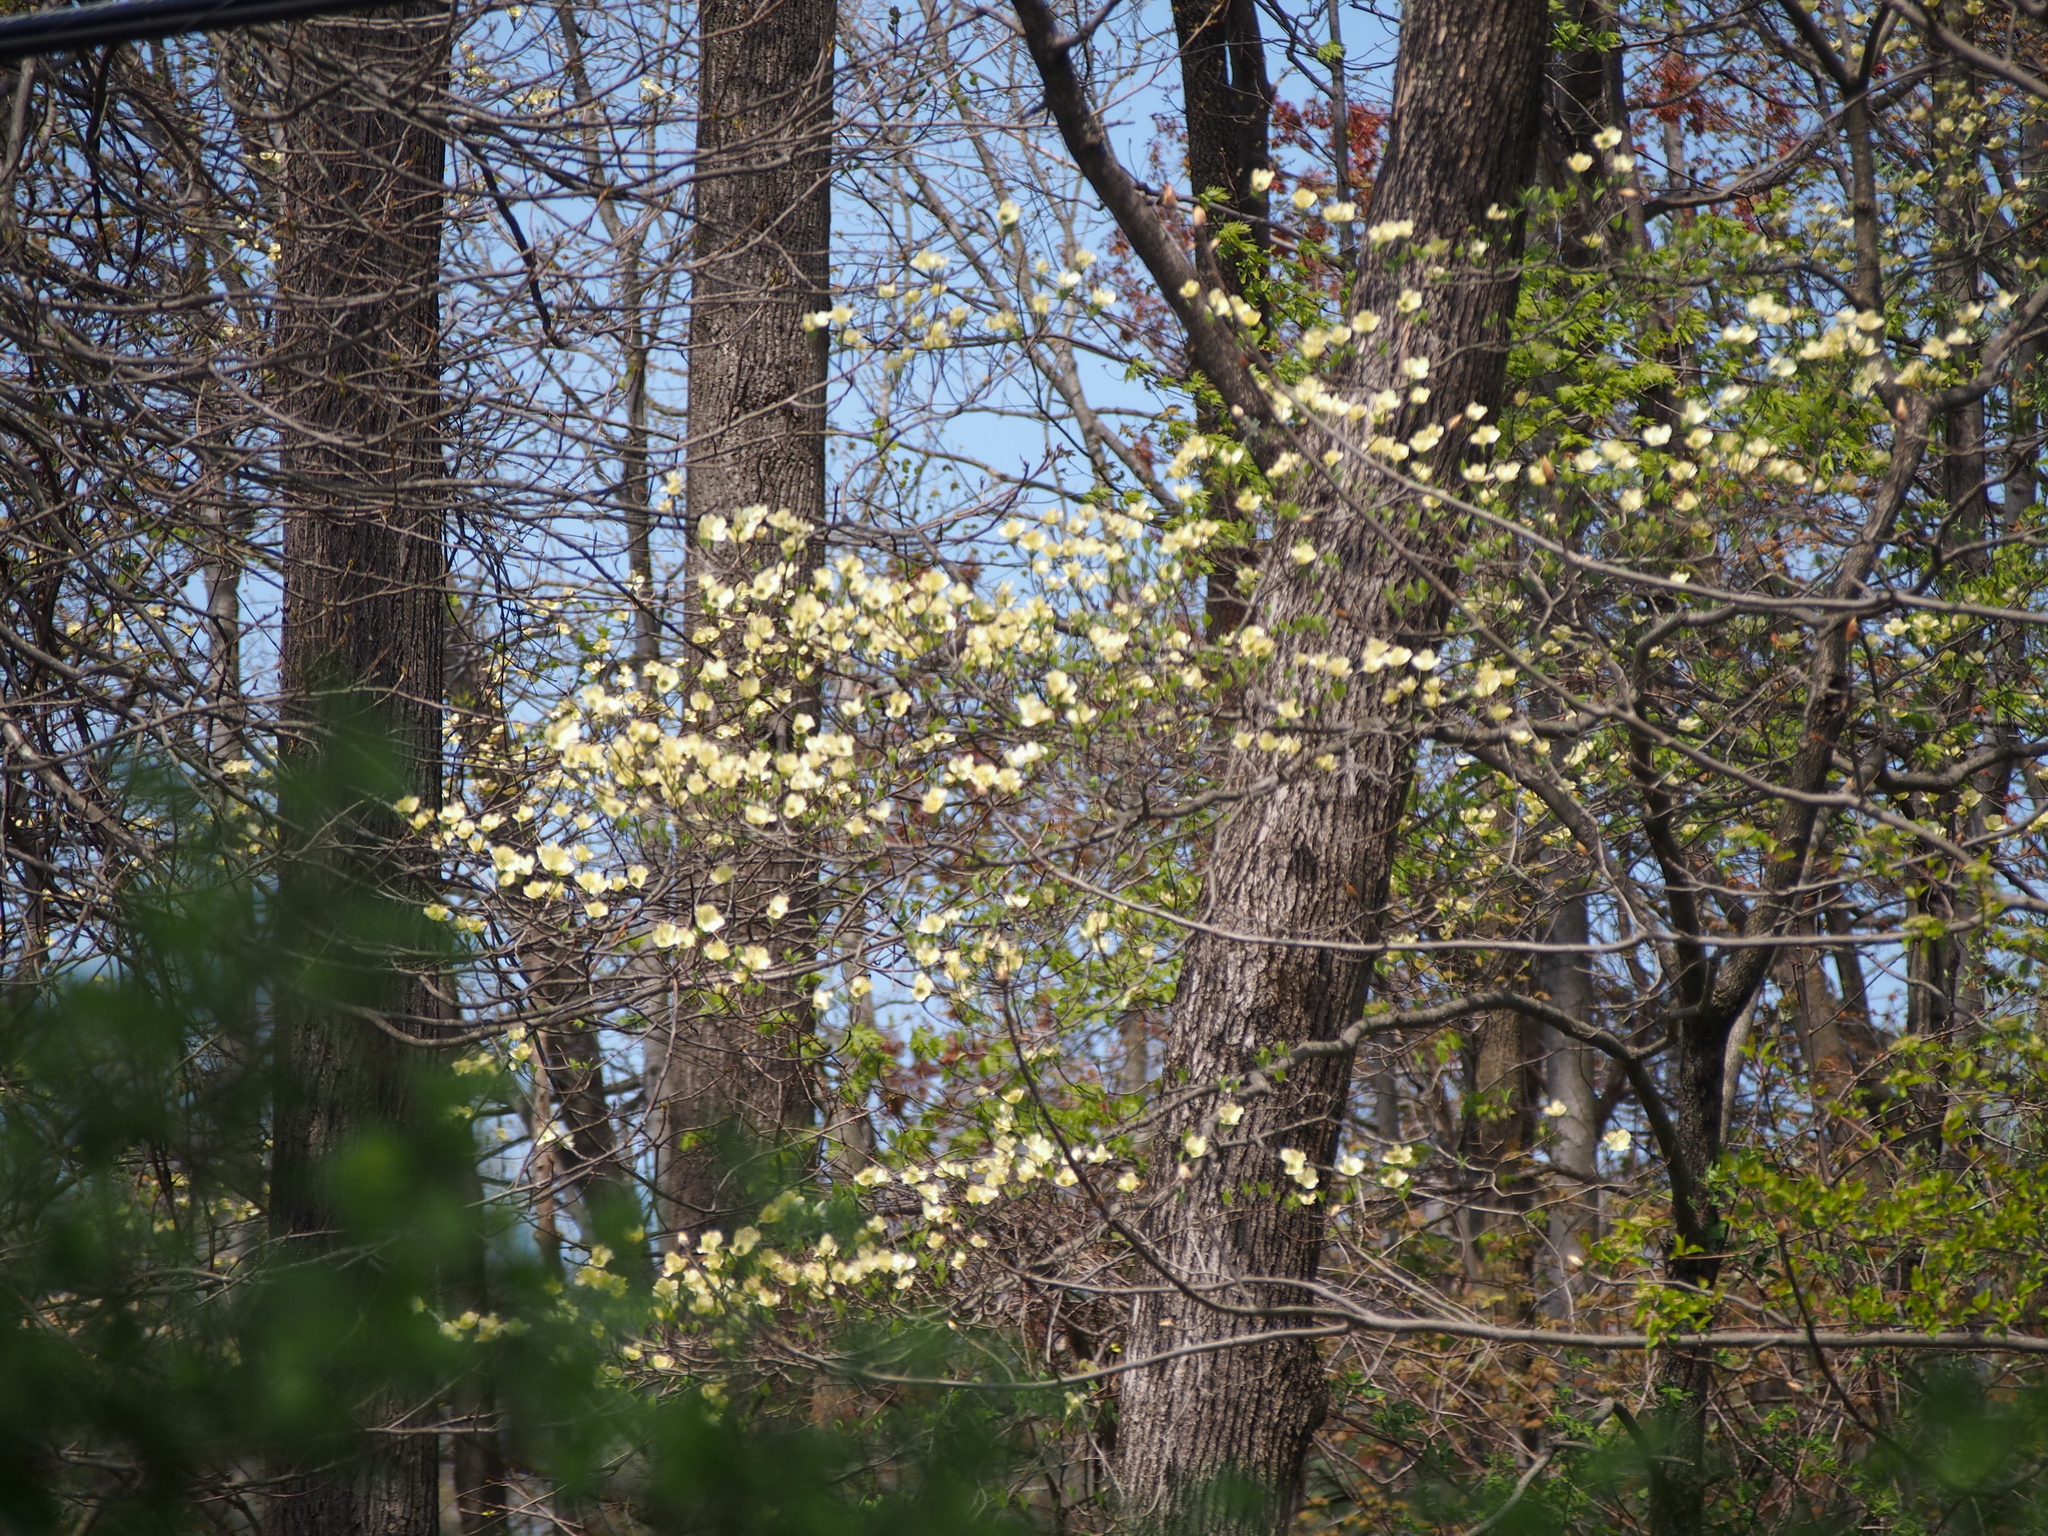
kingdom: Plantae
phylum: Tracheophyta
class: Magnoliopsida
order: Cornales
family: Cornaceae
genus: Cornus
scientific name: Cornus florida
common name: Flowering dogwood
